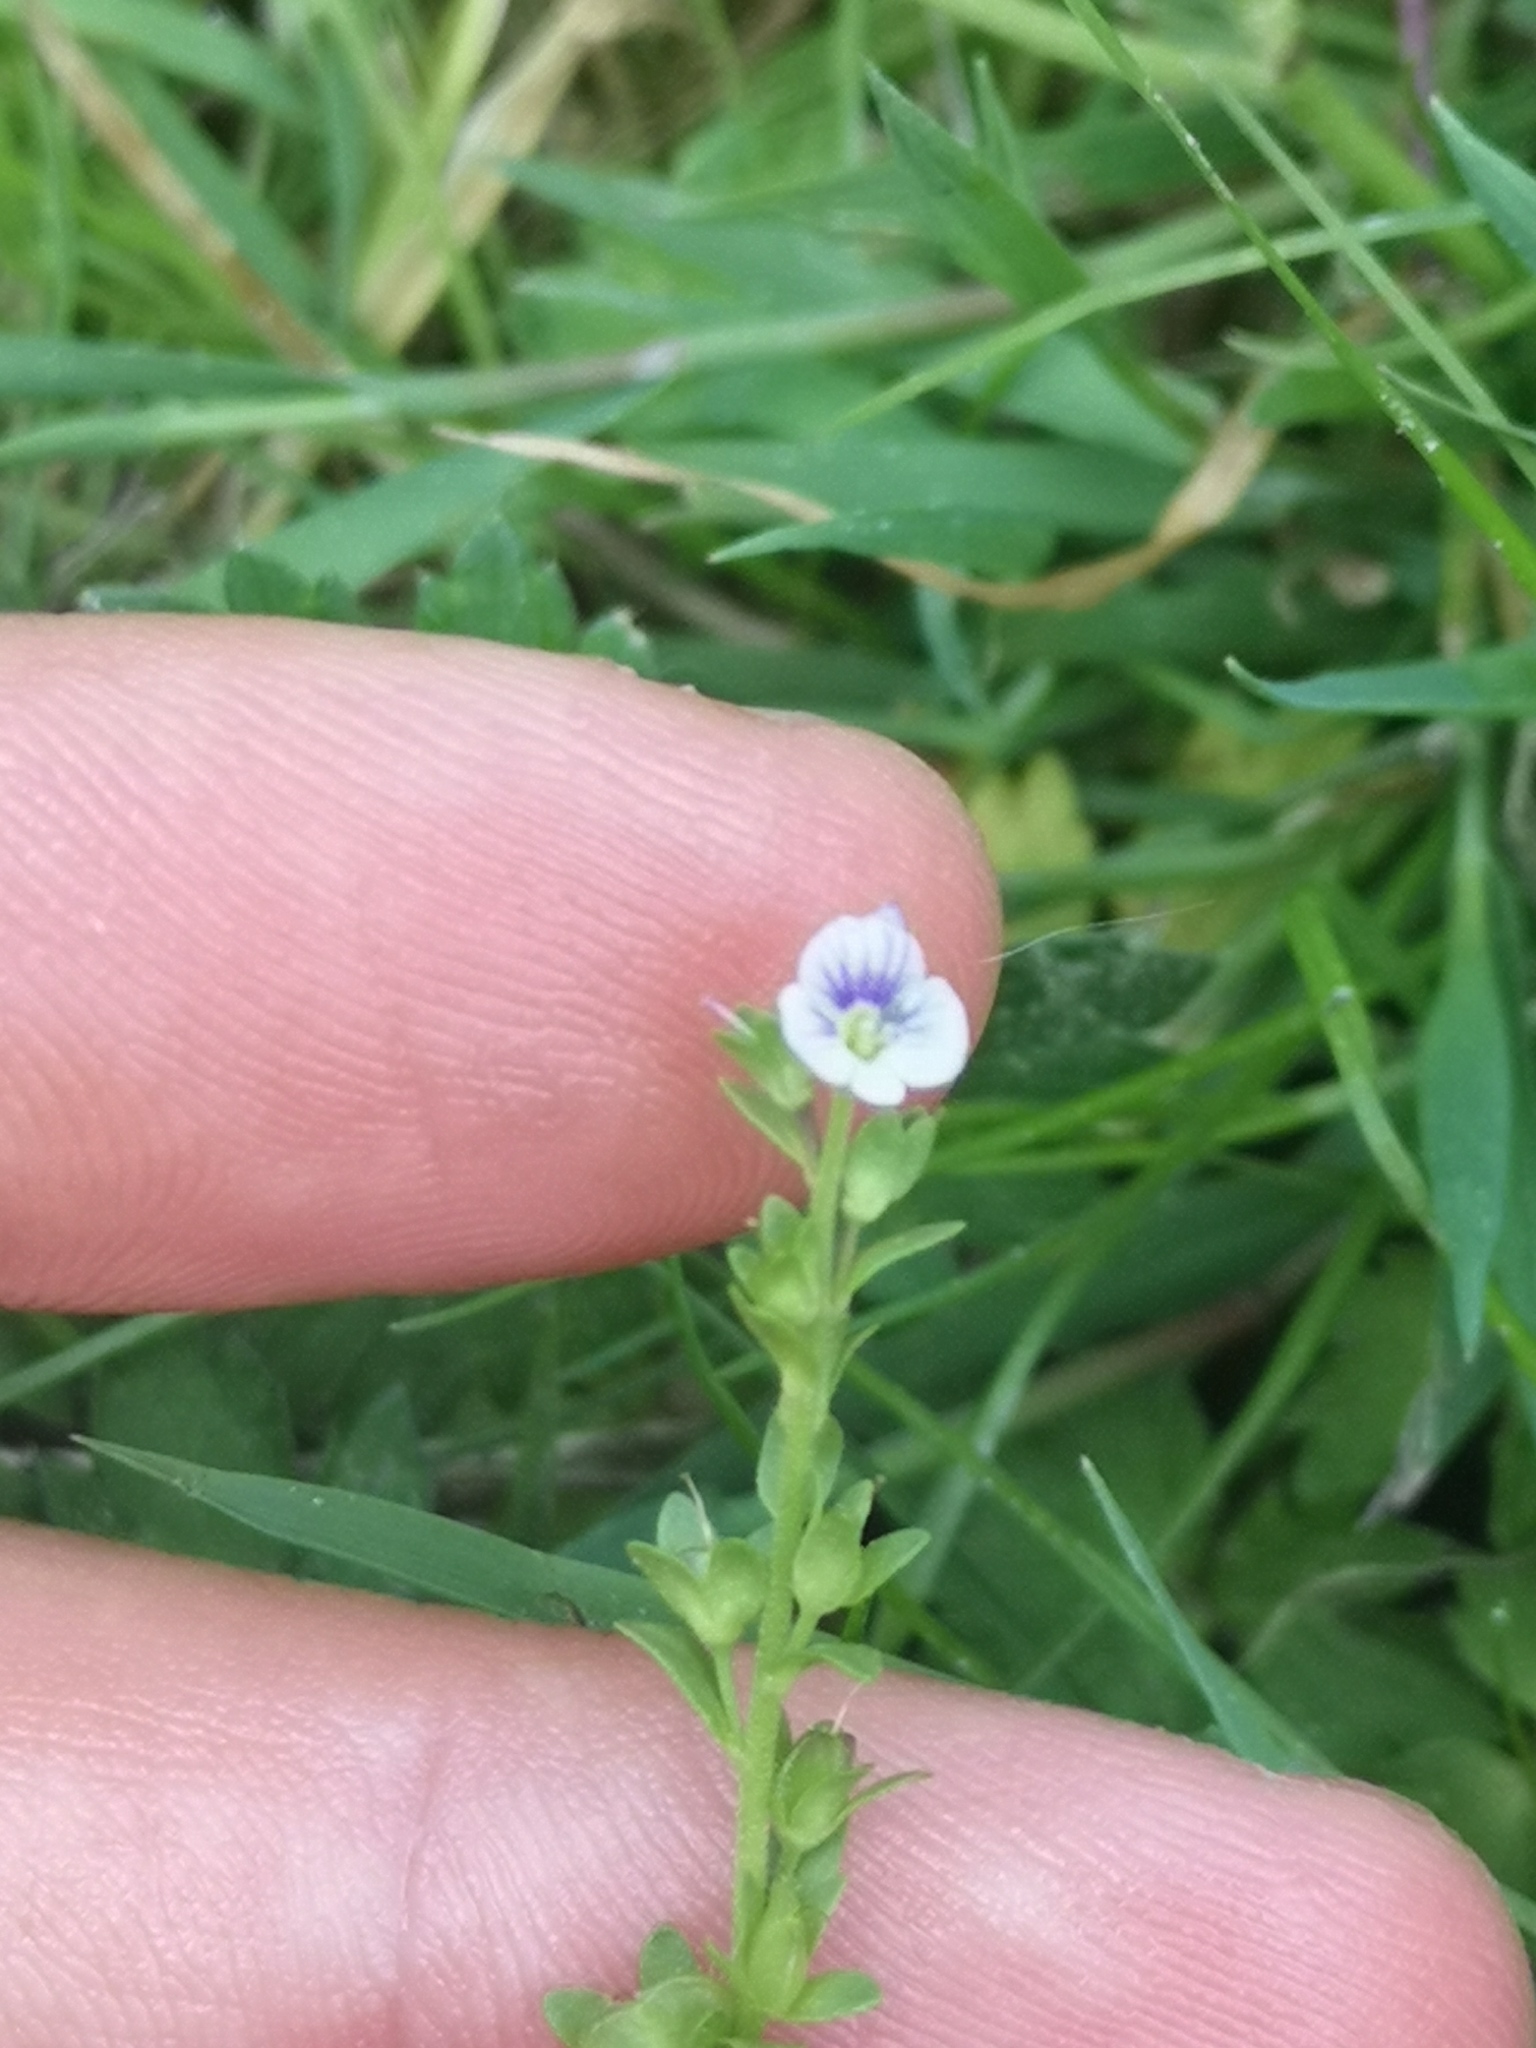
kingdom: Plantae
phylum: Tracheophyta
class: Magnoliopsida
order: Lamiales
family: Plantaginaceae
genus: Veronica
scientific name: Veronica serpyllifolia
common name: Thyme-leaved speedwell
